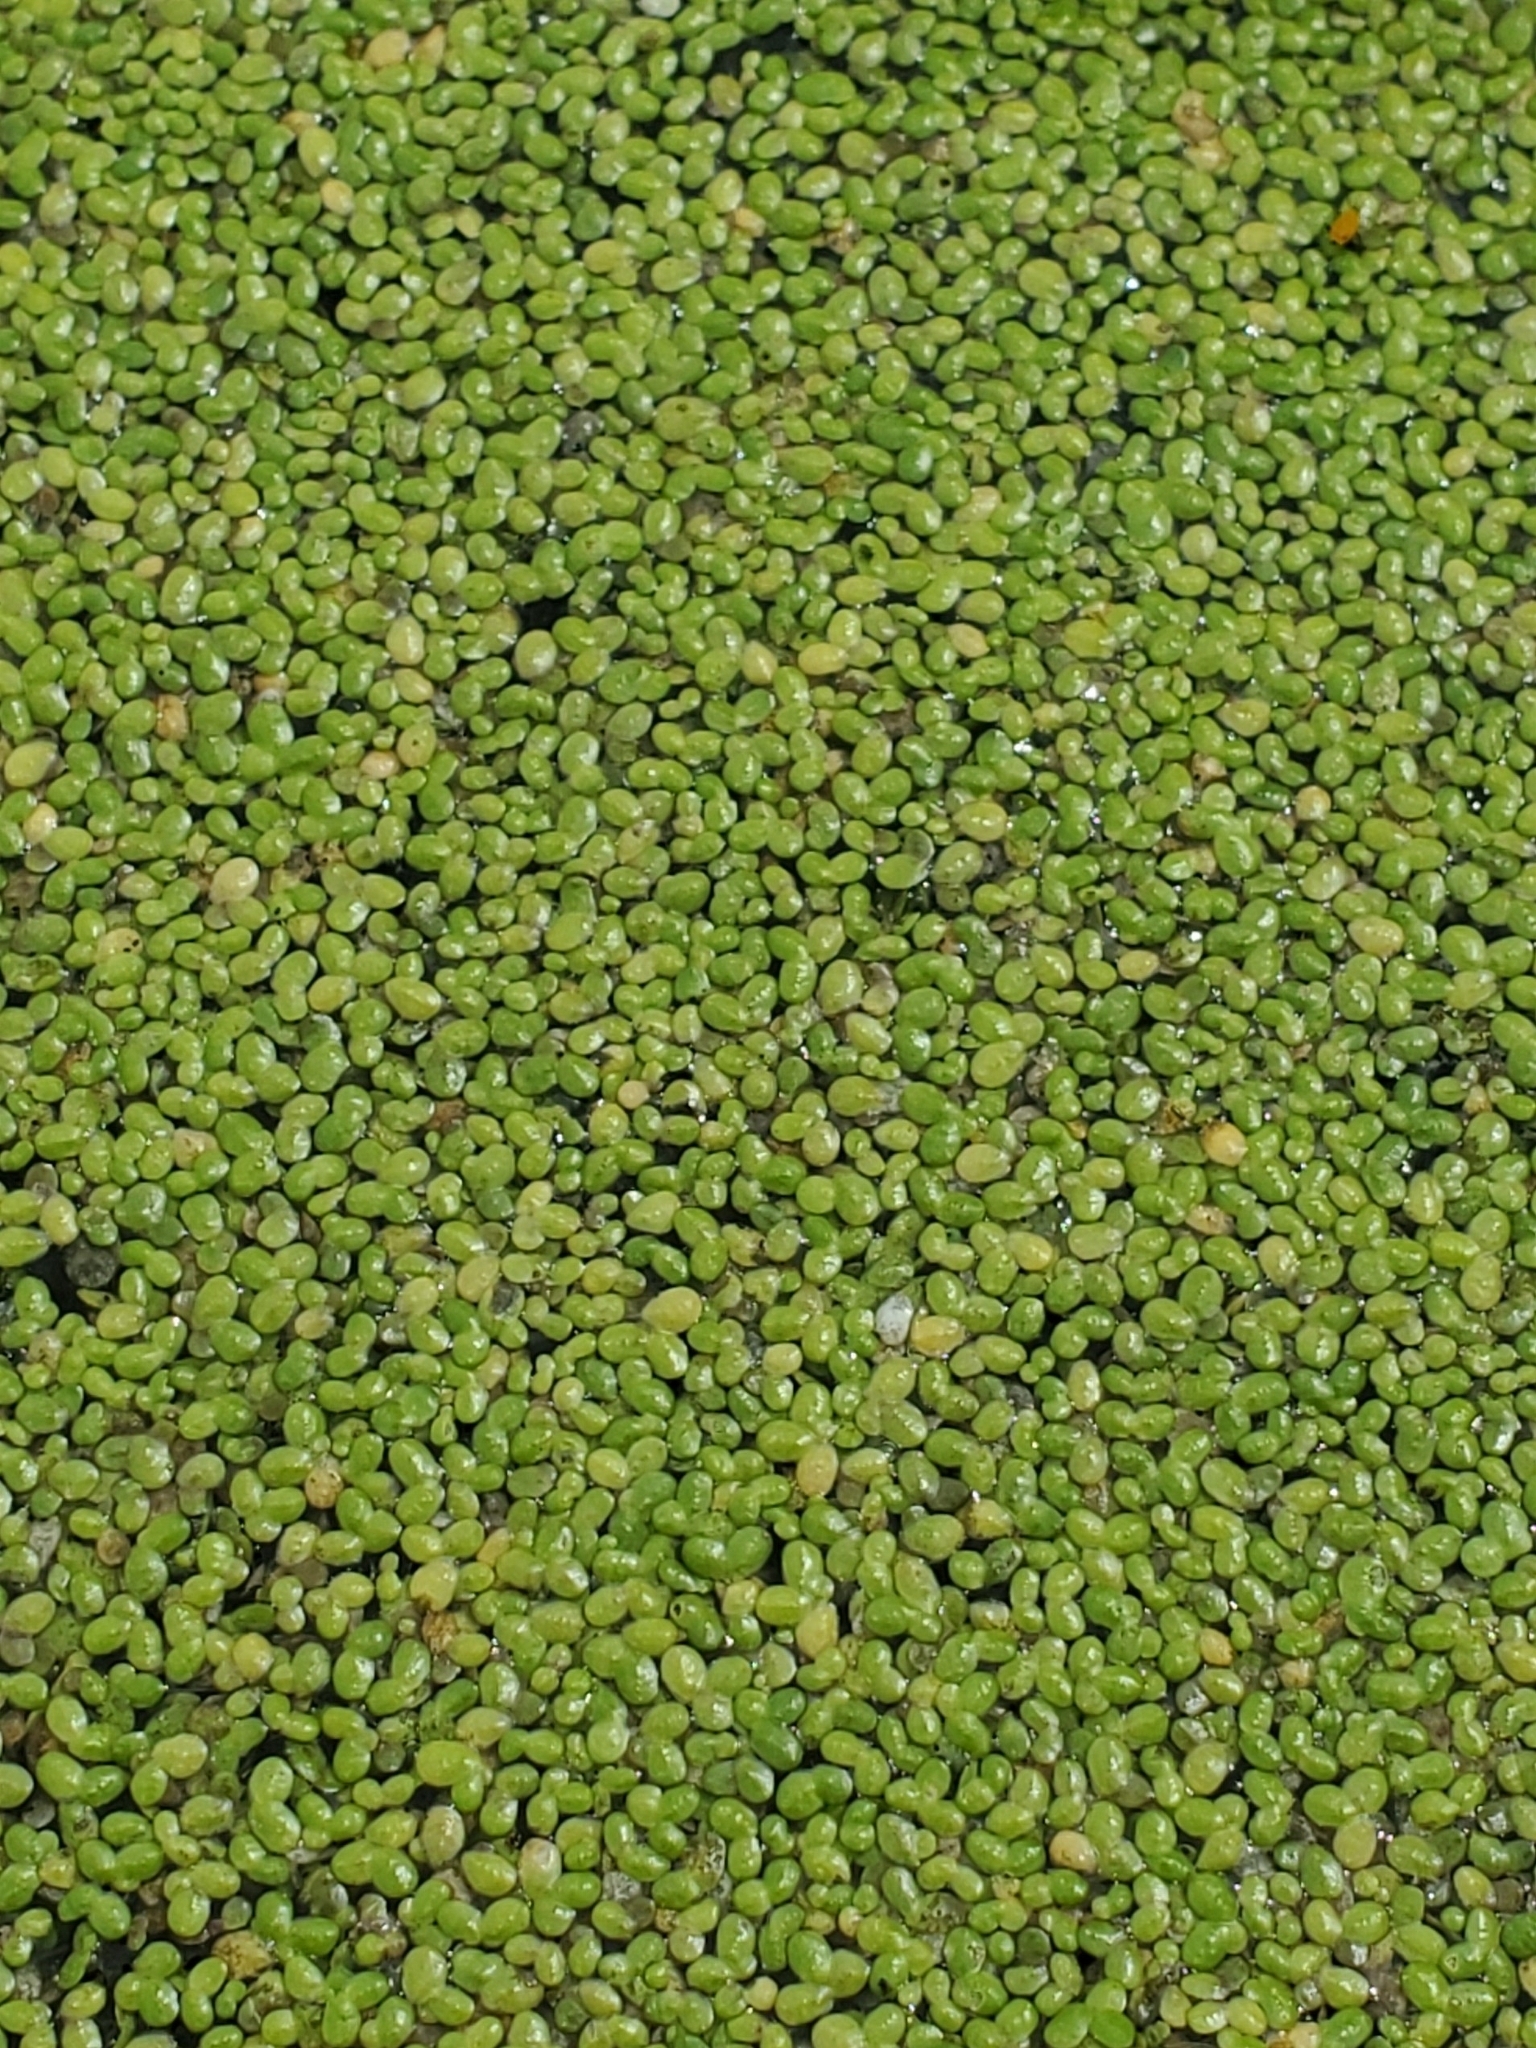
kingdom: Plantae
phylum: Tracheophyta
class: Liliopsida
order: Alismatales
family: Araceae
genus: Lemna
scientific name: Lemna minor
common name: Common duckweed
